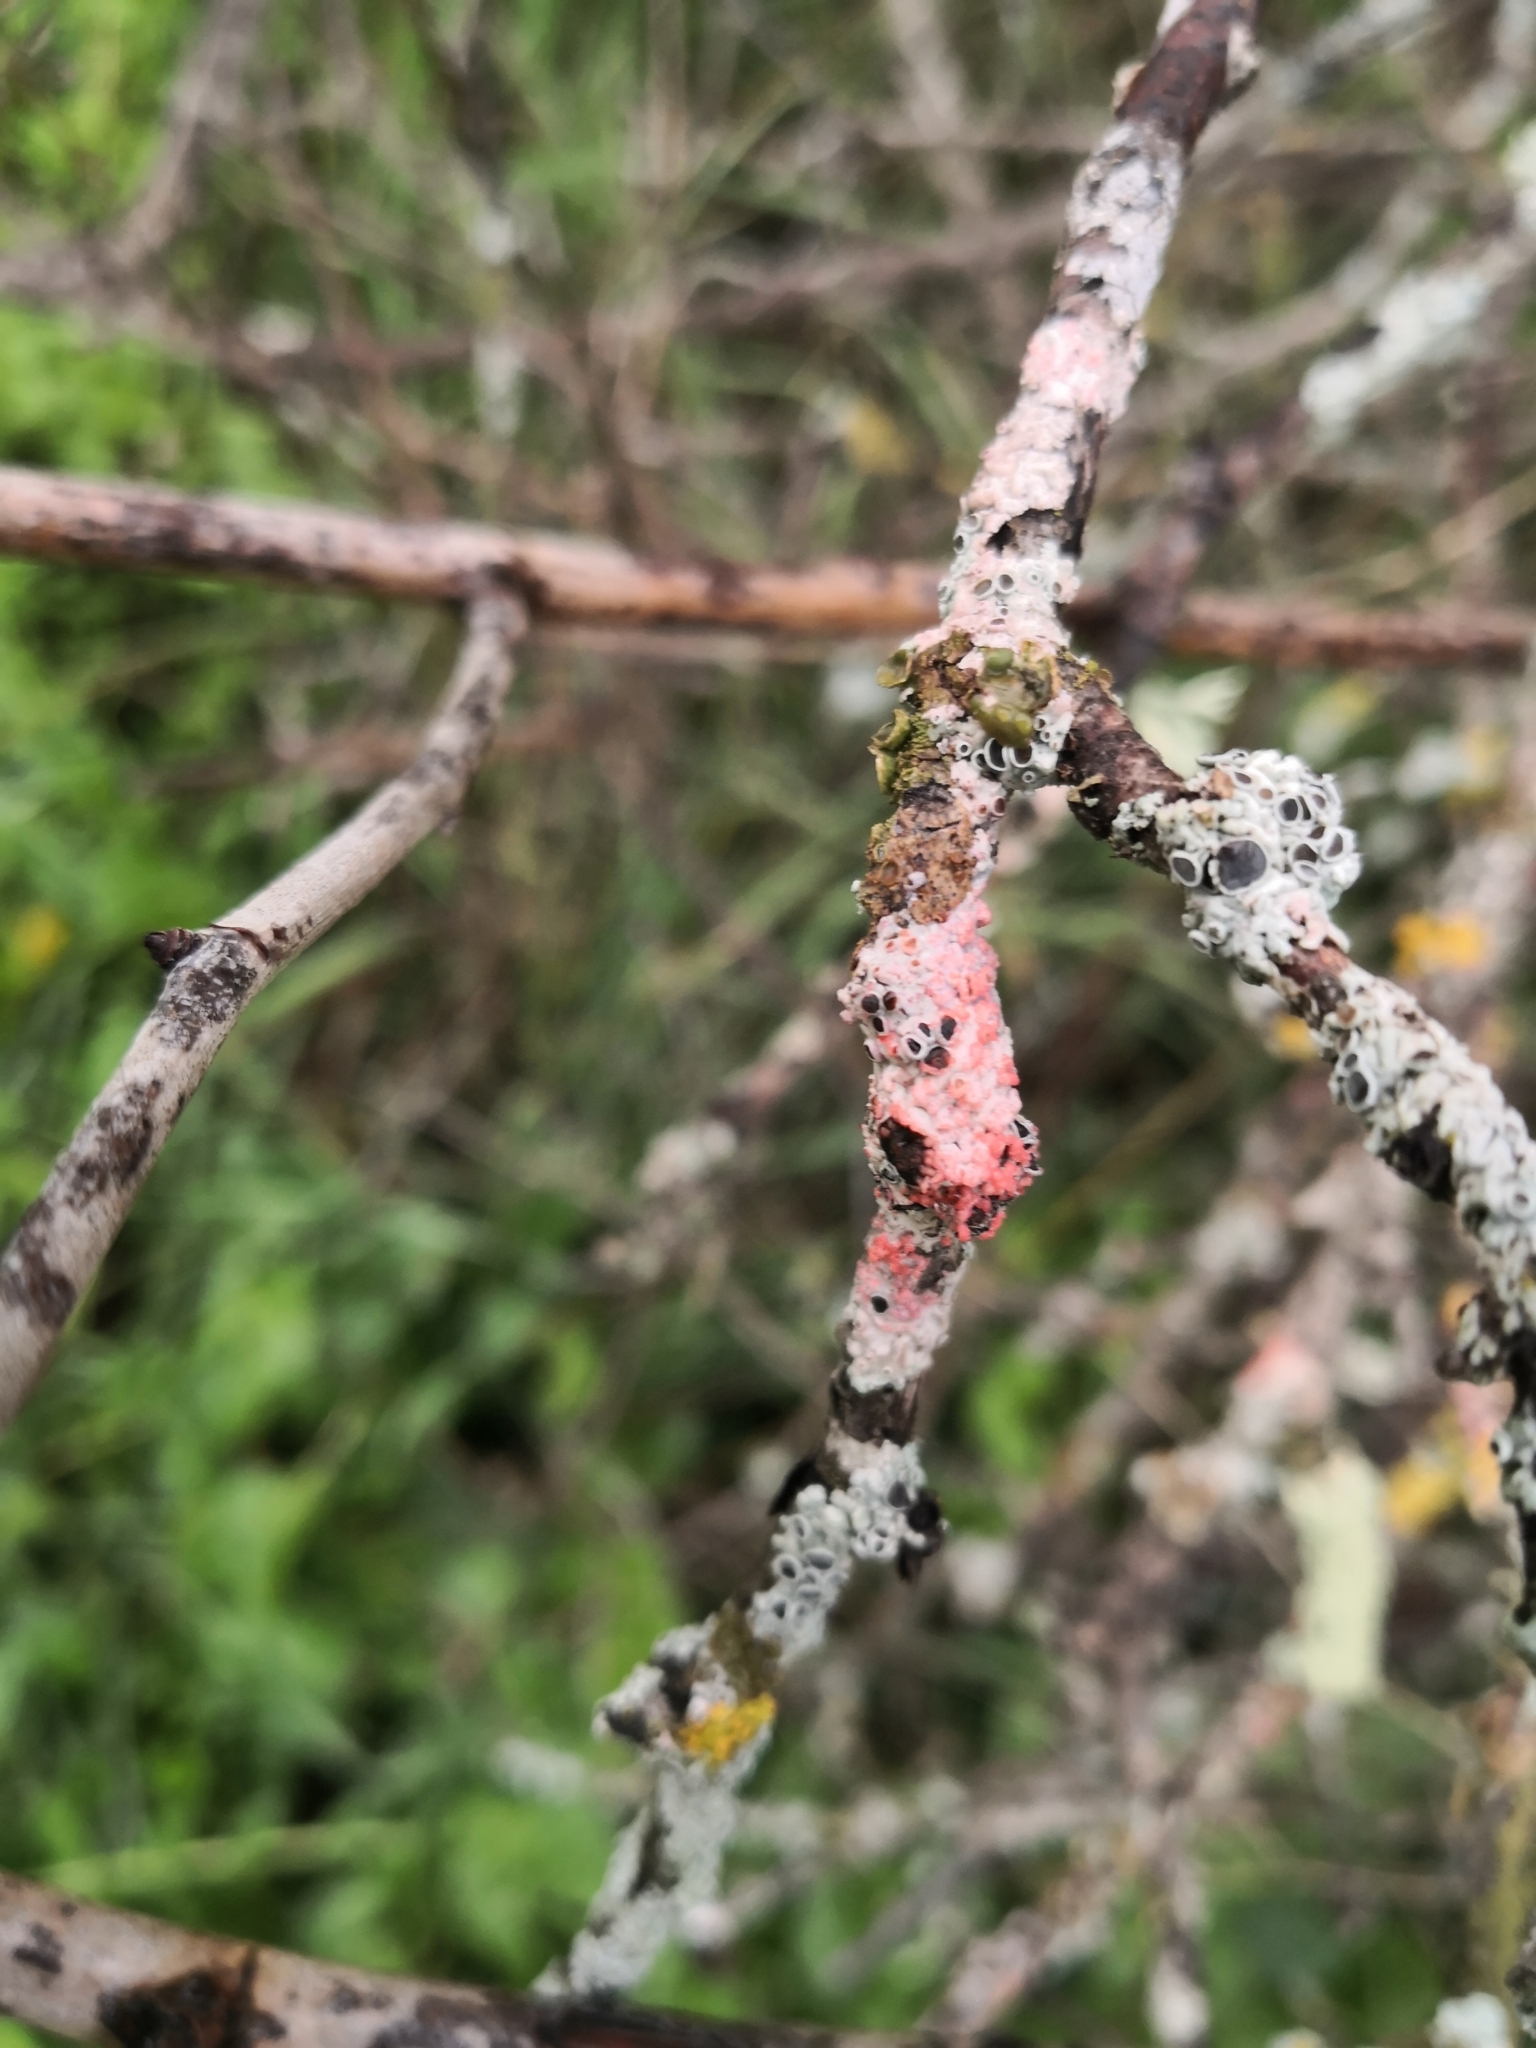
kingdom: Fungi
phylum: Basidiomycota
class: Agaricomycetes
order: Corticiales
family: Corticiaceae
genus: Marchandiomyces
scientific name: Marchandiomyces corallinus
